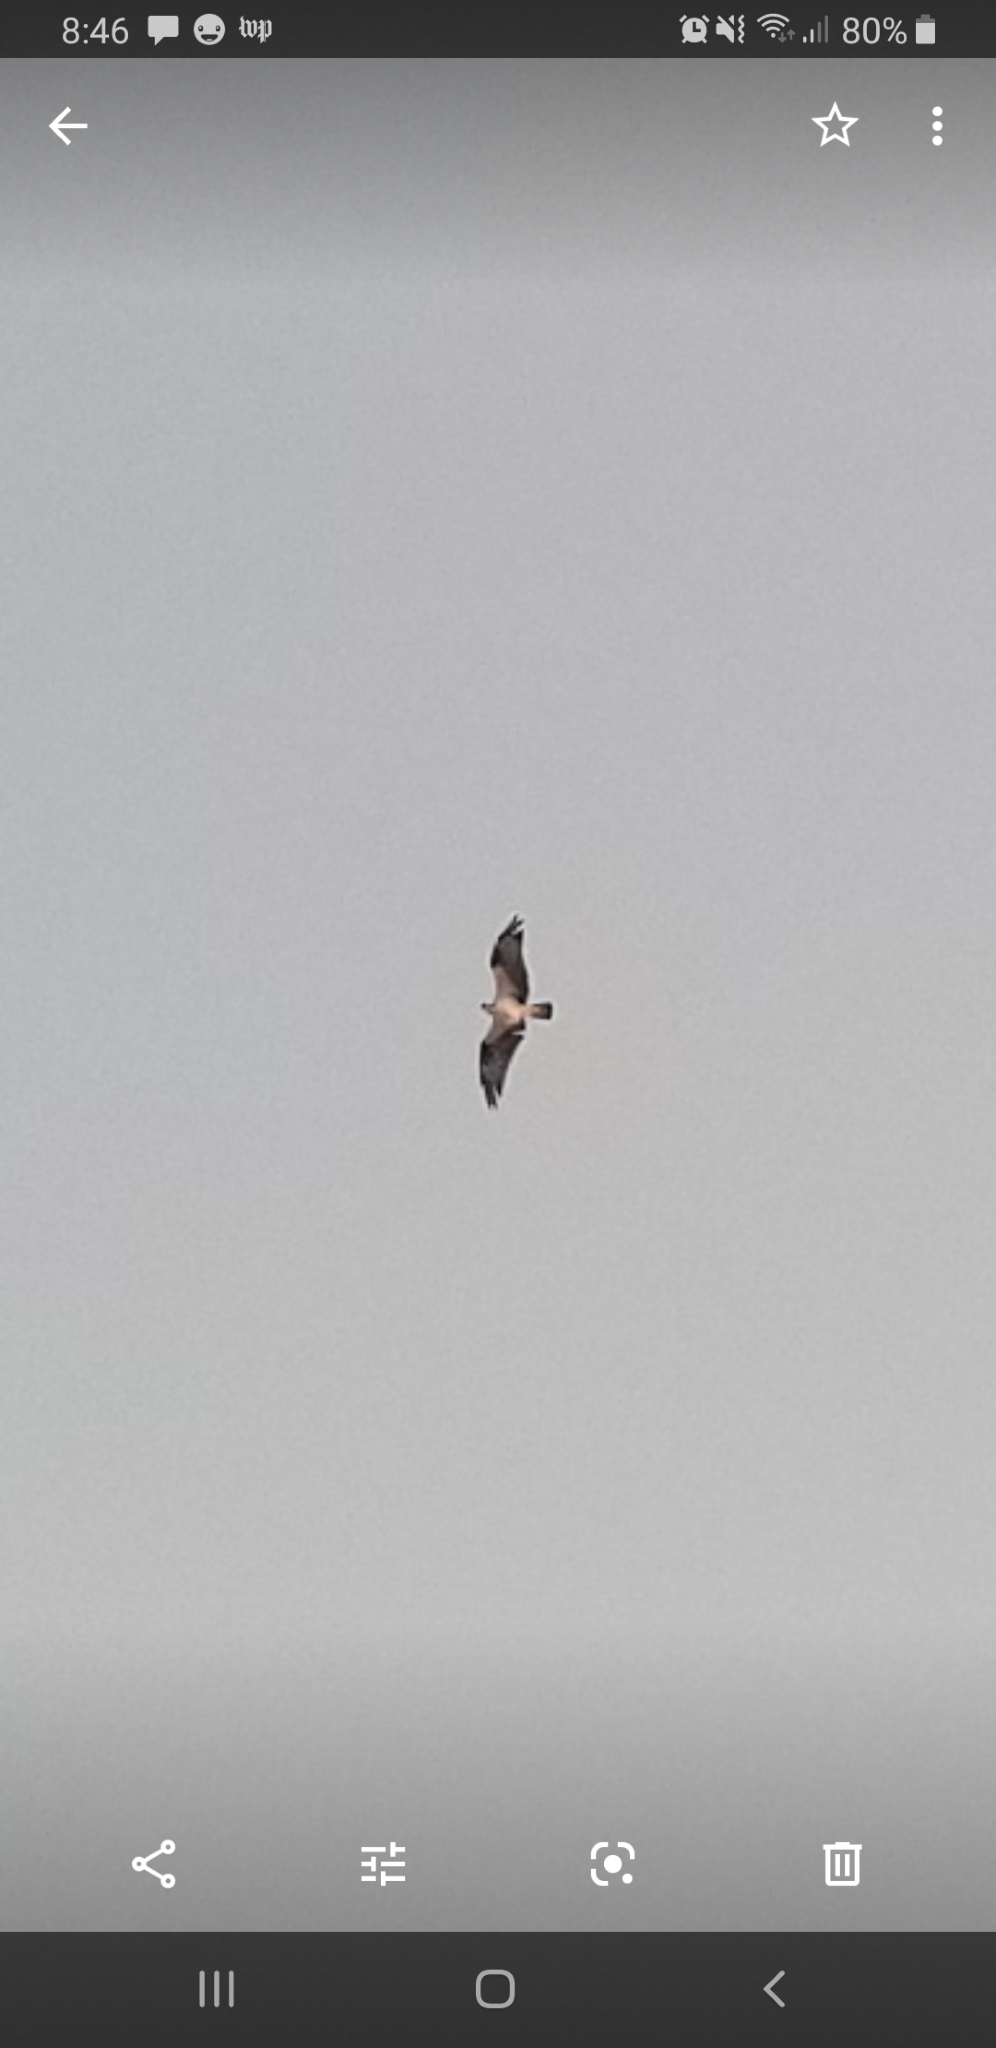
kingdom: Animalia
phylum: Chordata
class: Aves
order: Accipitriformes
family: Pandionidae
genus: Pandion
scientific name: Pandion haliaetus
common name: Osprey
